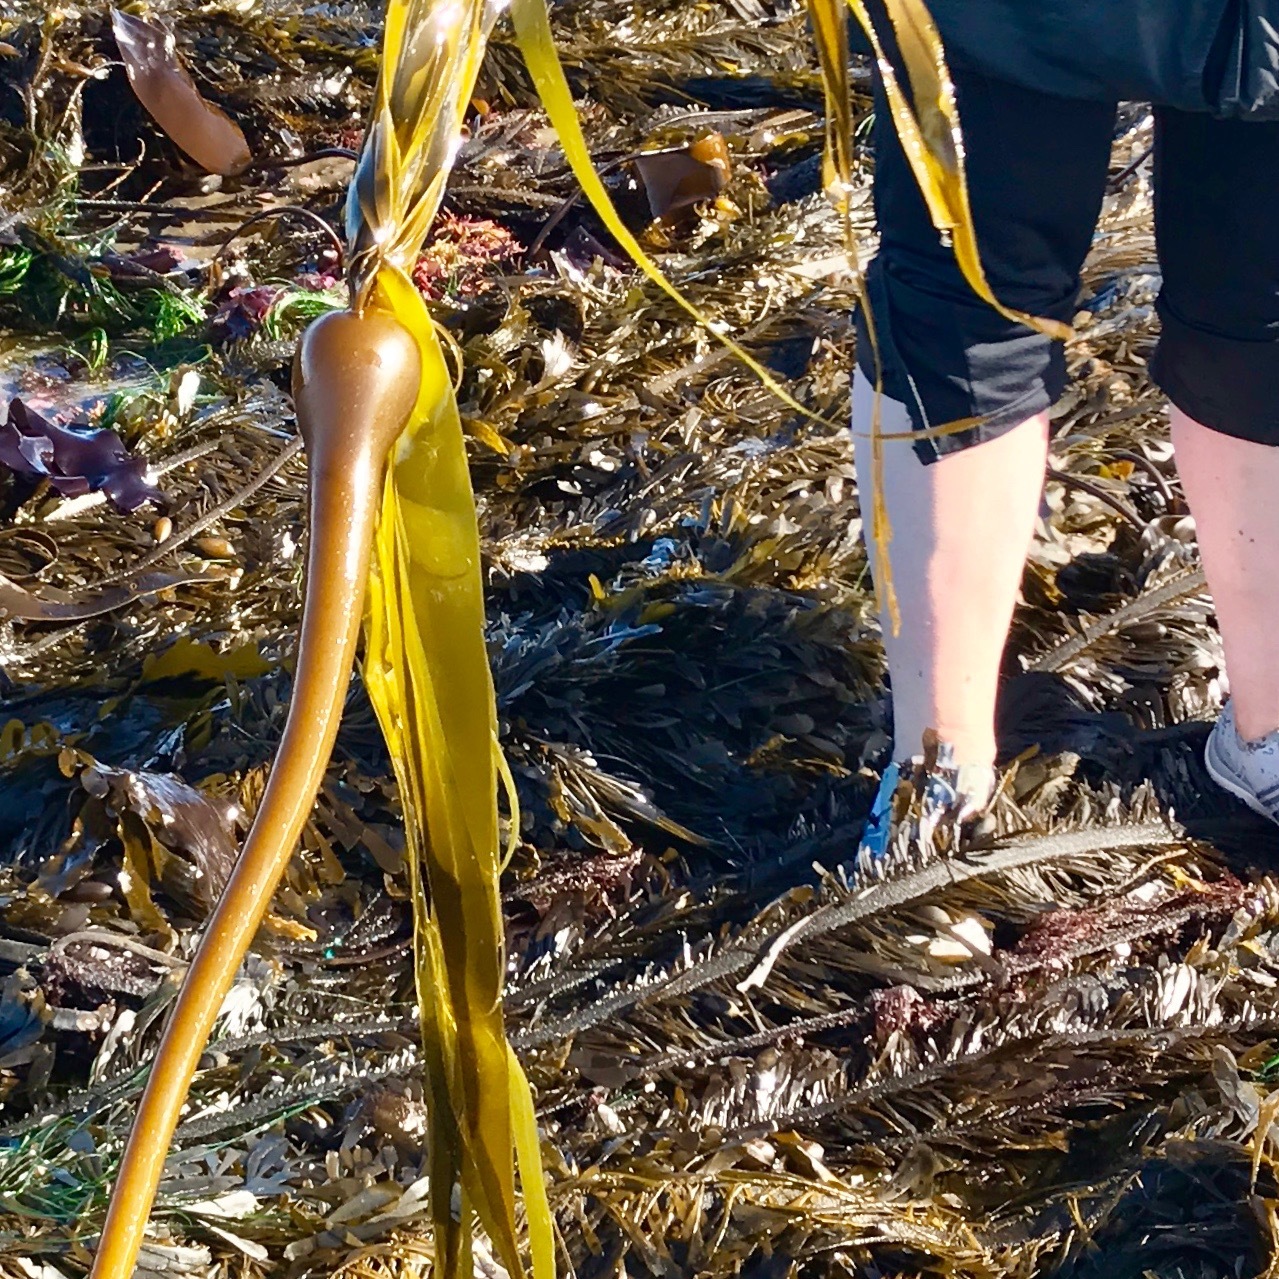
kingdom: Chromista
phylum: Ochrophyta
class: Phaeophyceae
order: Laminariales
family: Laminariaceae
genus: Nereocystis
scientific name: Nereocystis luetkeana
